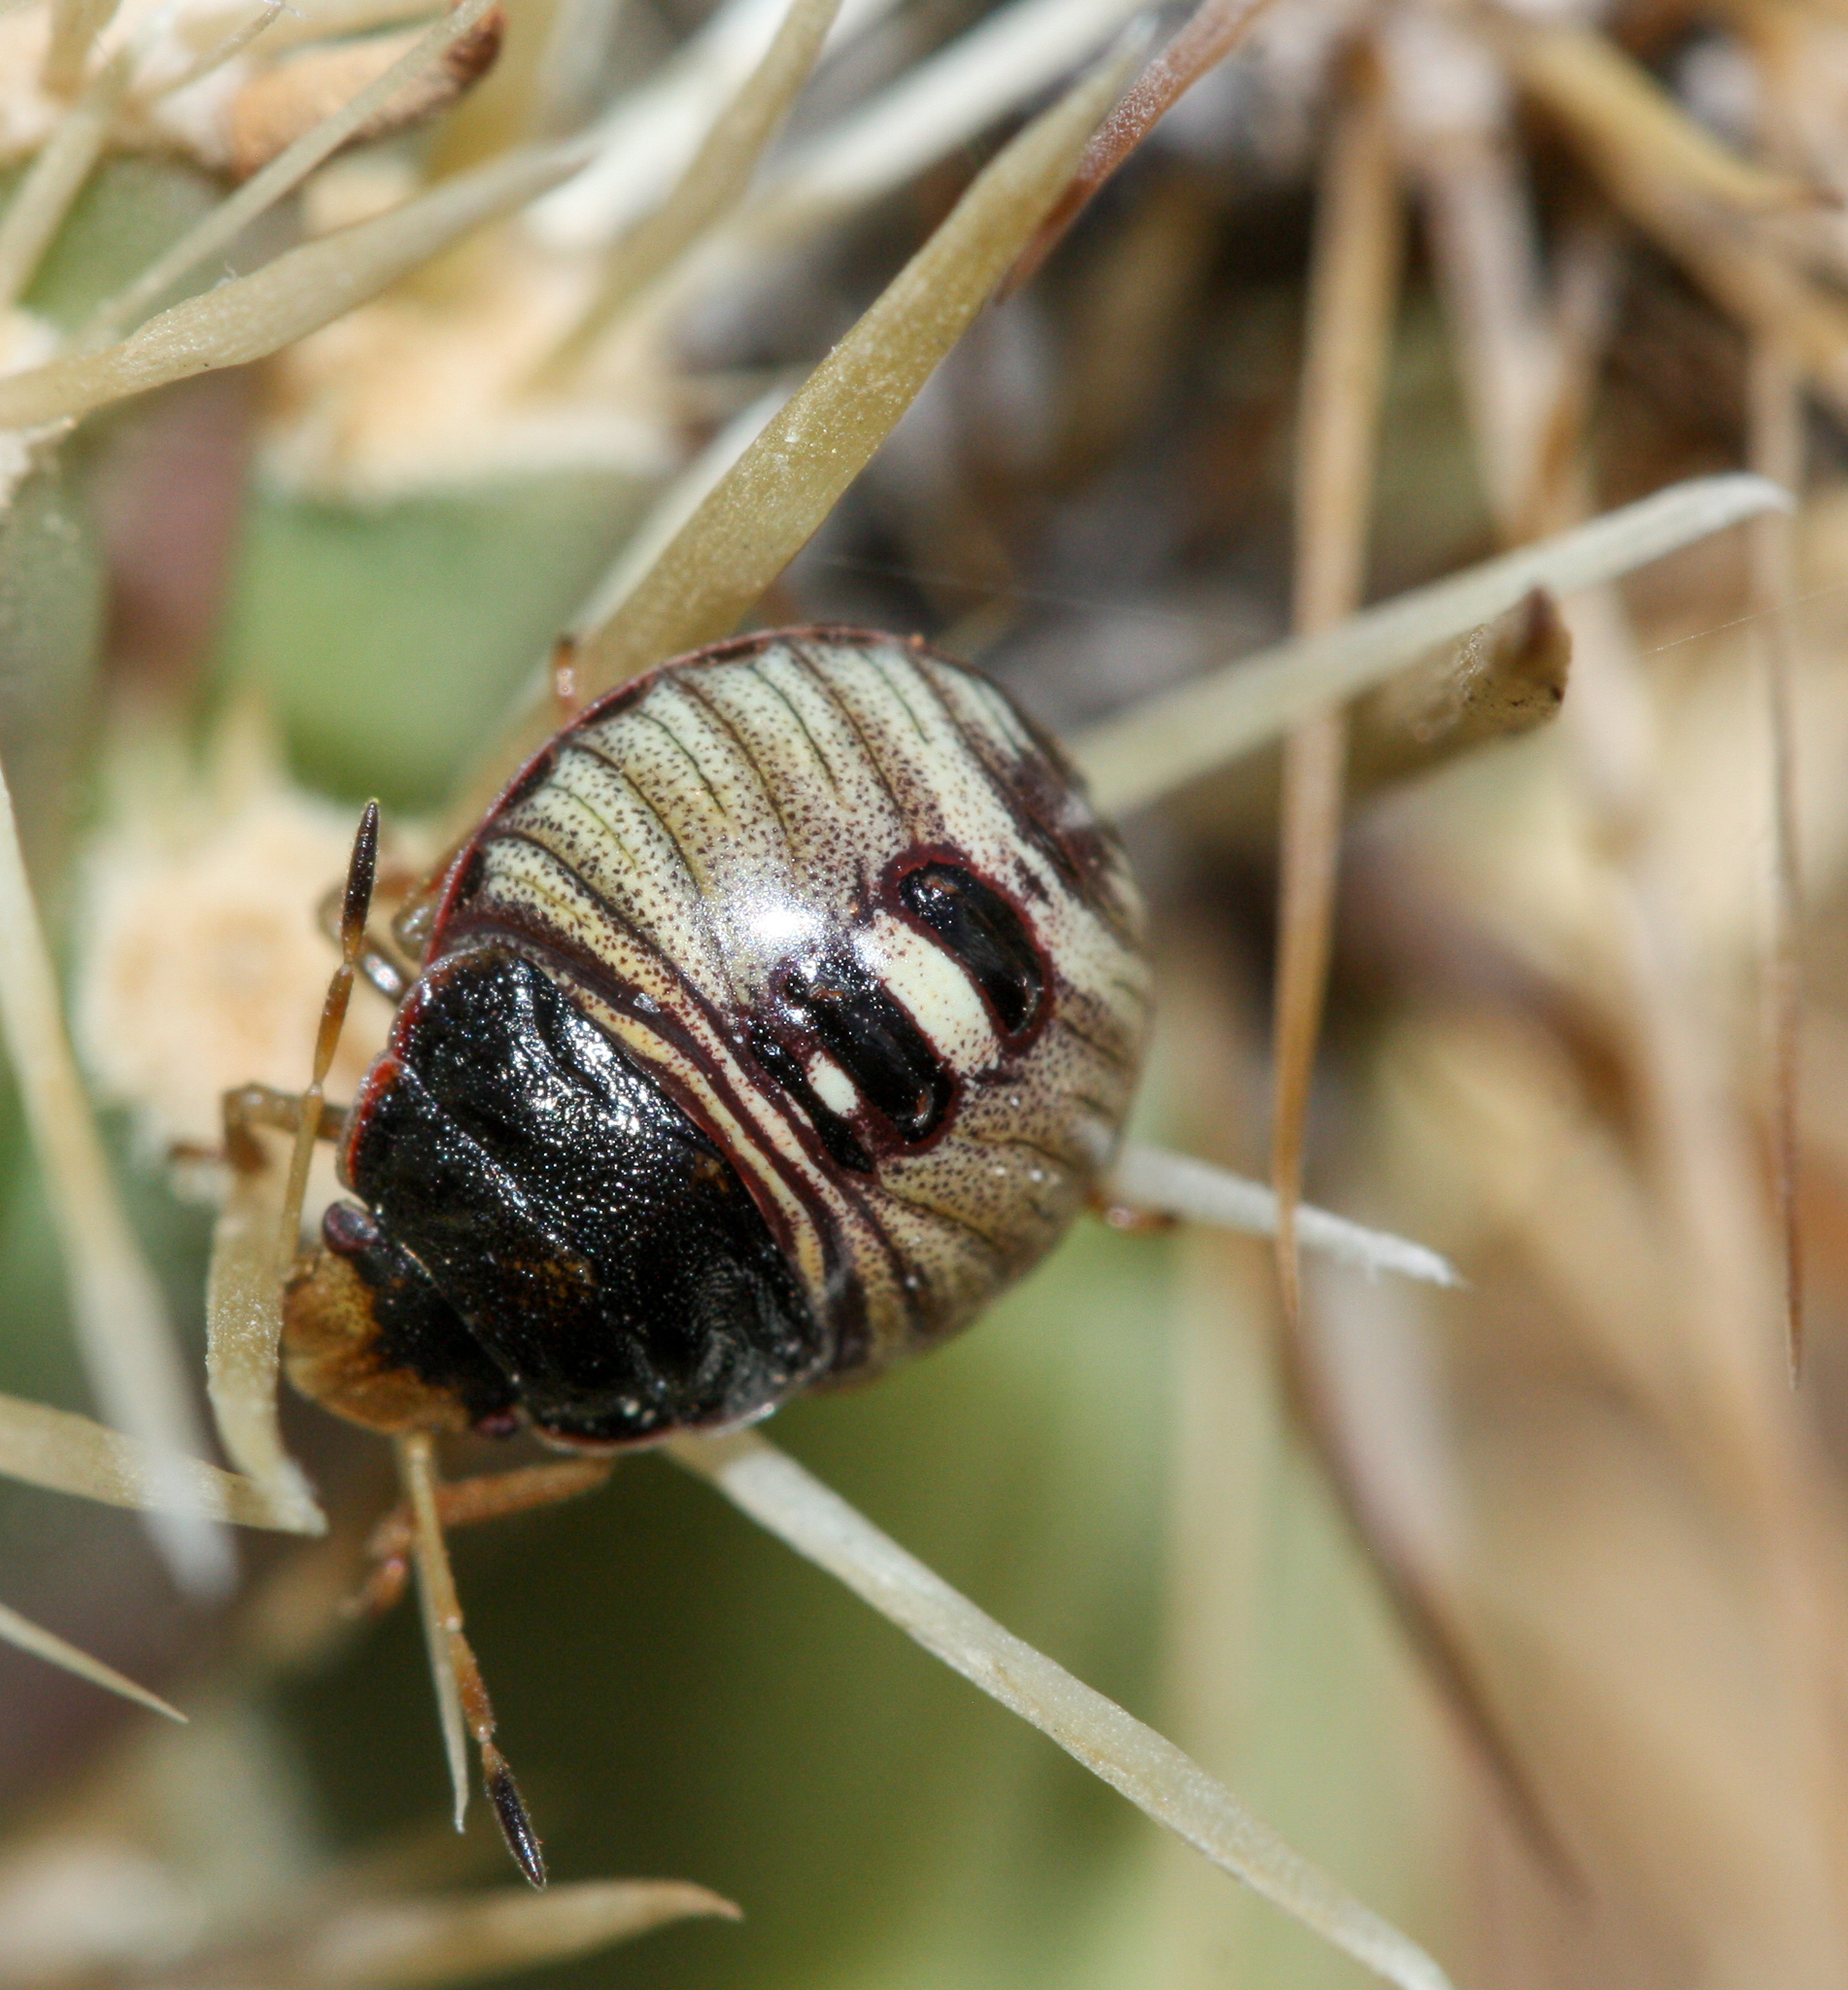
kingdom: Animalia
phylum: Arthropoda
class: Insecta
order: Hemiptera
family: Pentatomidae
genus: Chlorochroa
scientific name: Chlorochroa opuntiae
